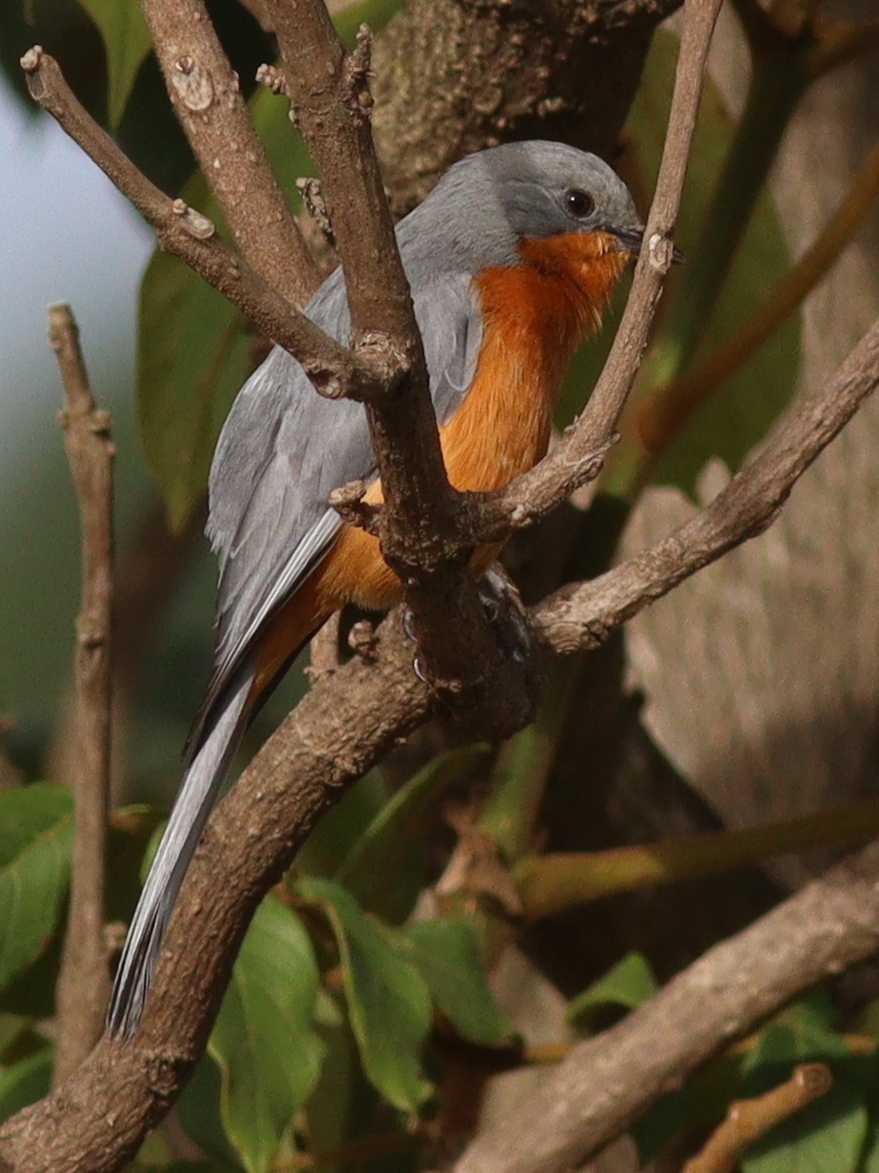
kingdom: Animalia
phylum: Chordata
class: Aves
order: Passeriformes
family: Muscicapidae
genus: Empidornis
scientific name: Empidornis semipartitus
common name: Silverbird
